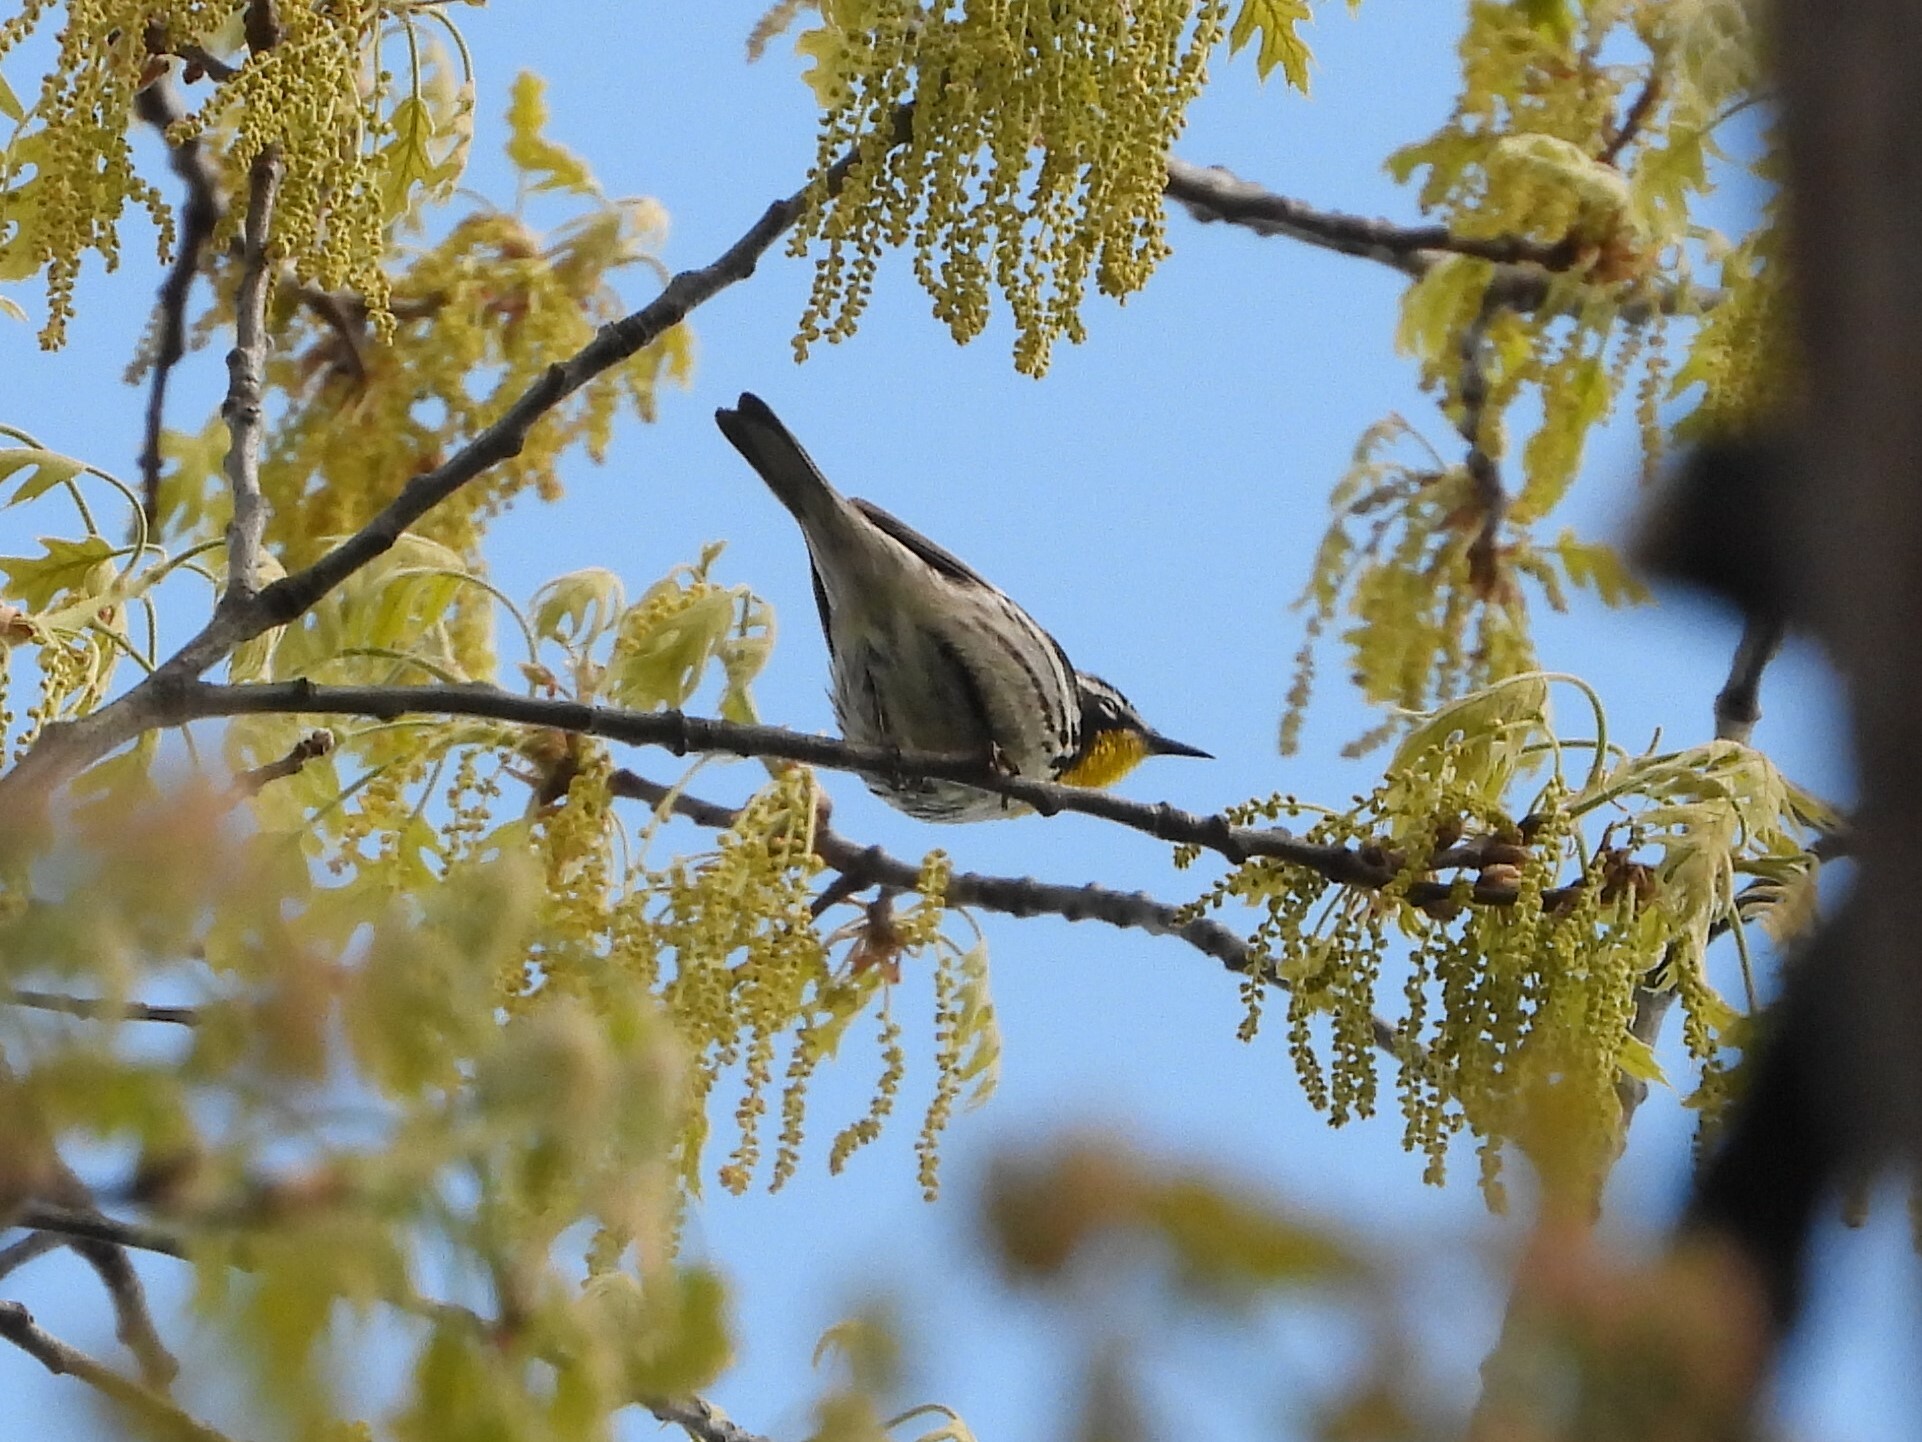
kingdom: Animalia
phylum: Chordata
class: Aves
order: Passeriformes
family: Parulidae
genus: Setophaga
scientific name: Setophaga dominica
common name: Yellow-throated warbler
